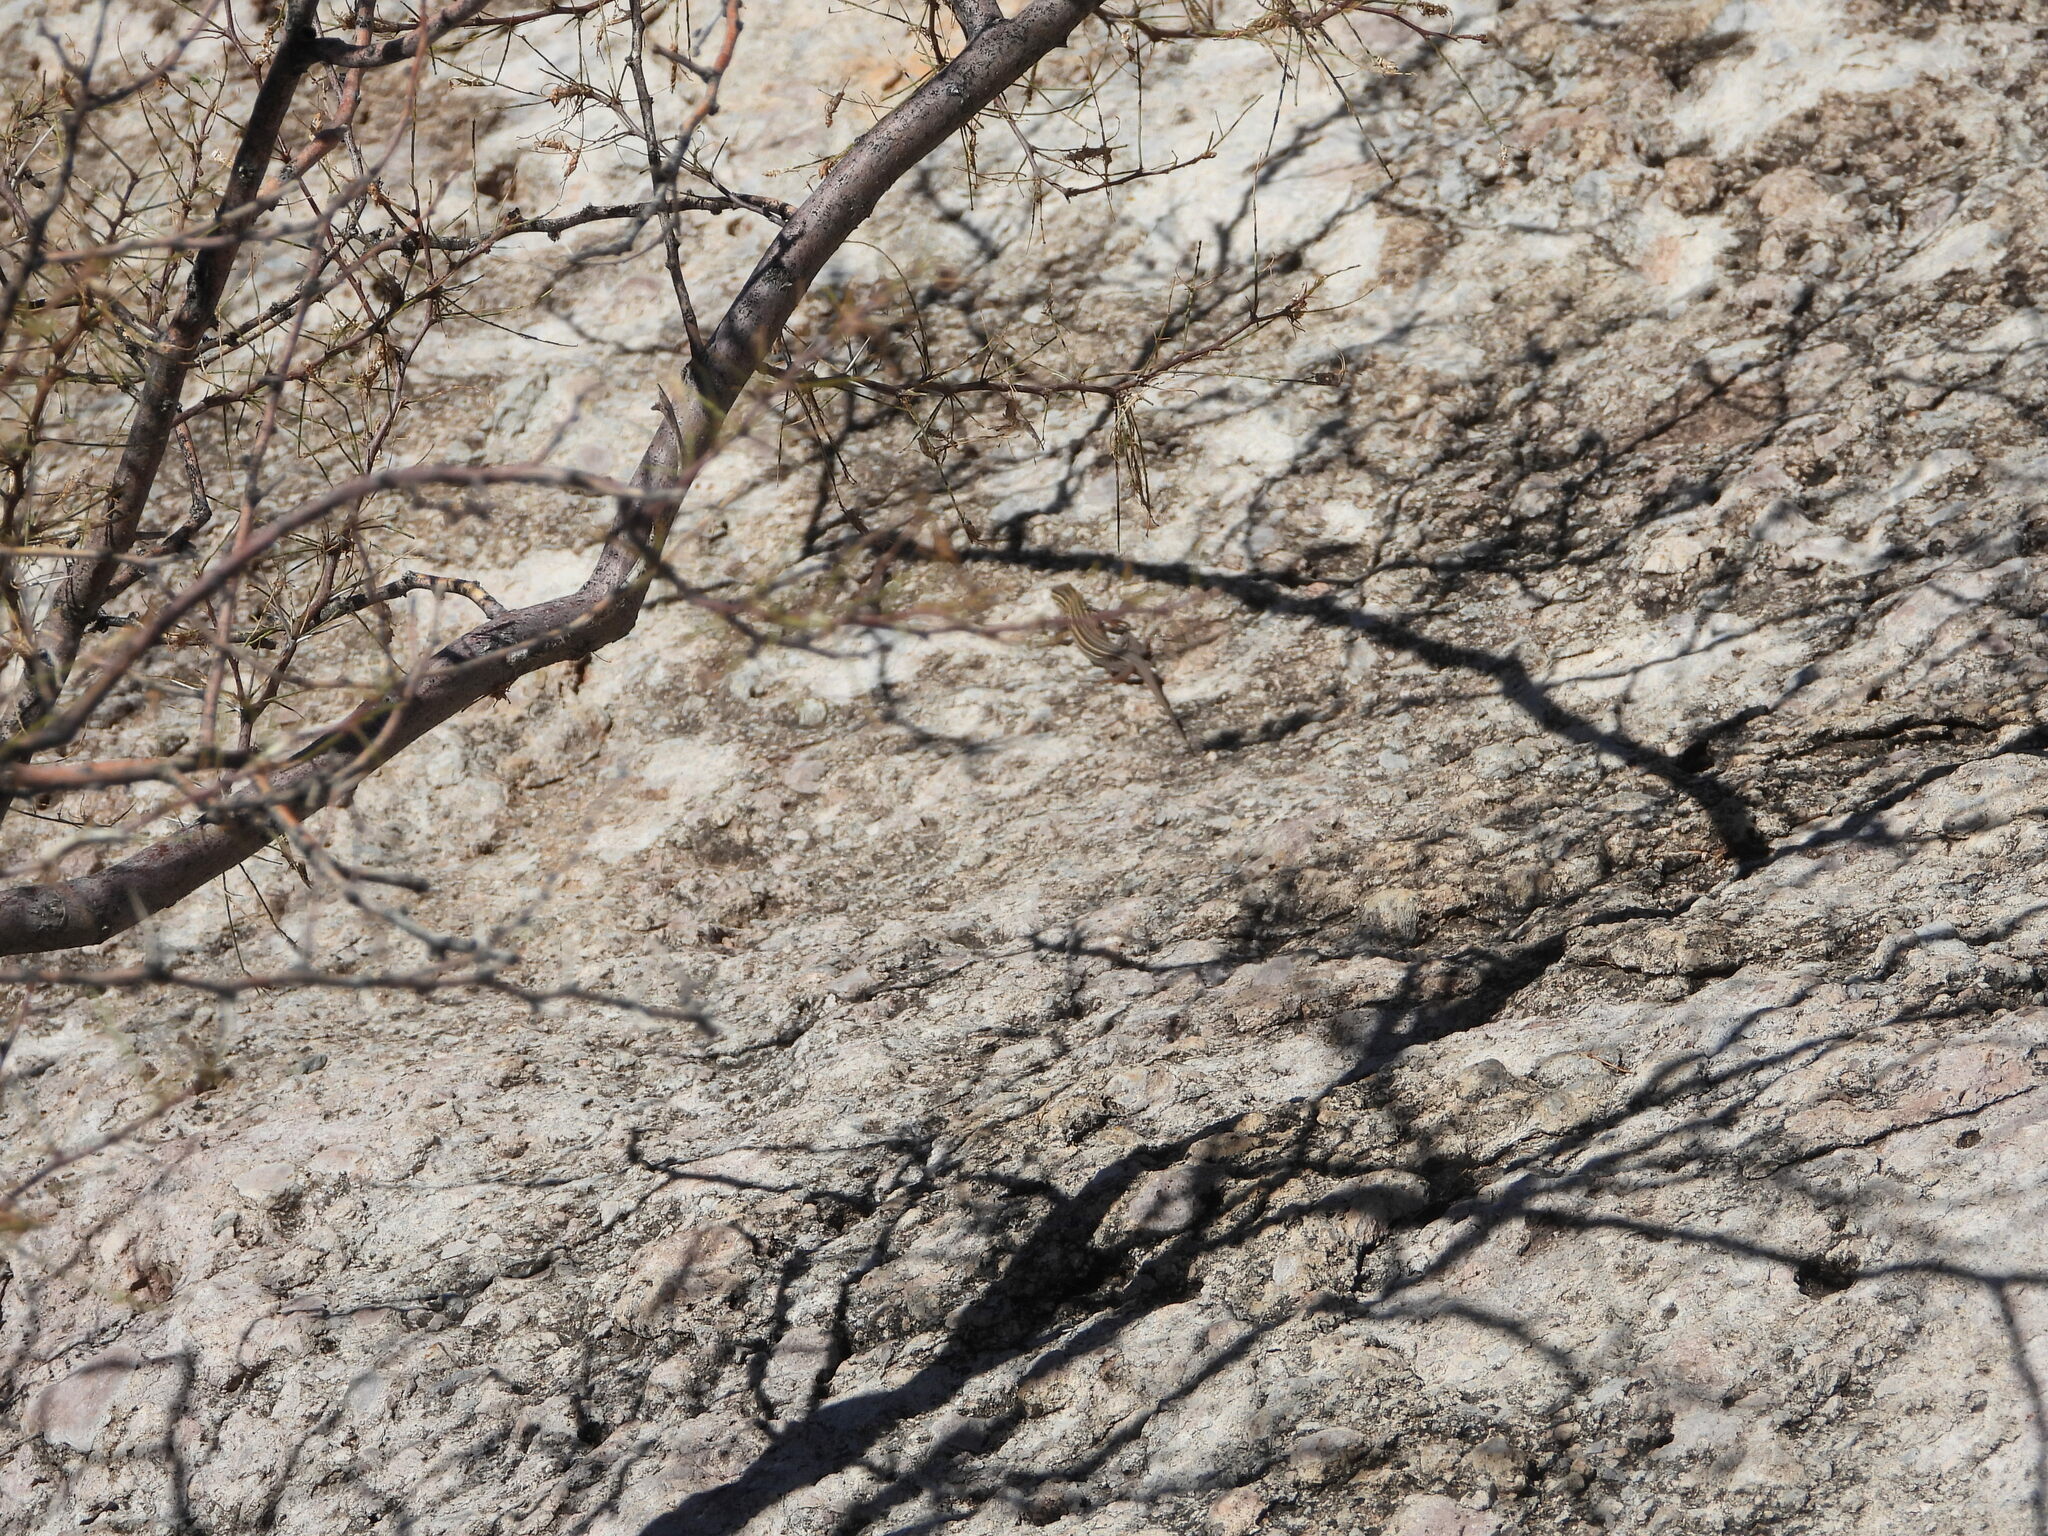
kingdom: Animalia
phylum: Chordata
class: Squamata
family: Teiidae
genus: Aspidoscelis
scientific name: Aspidoscelis neomexicanus
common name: New mexico whiptail
